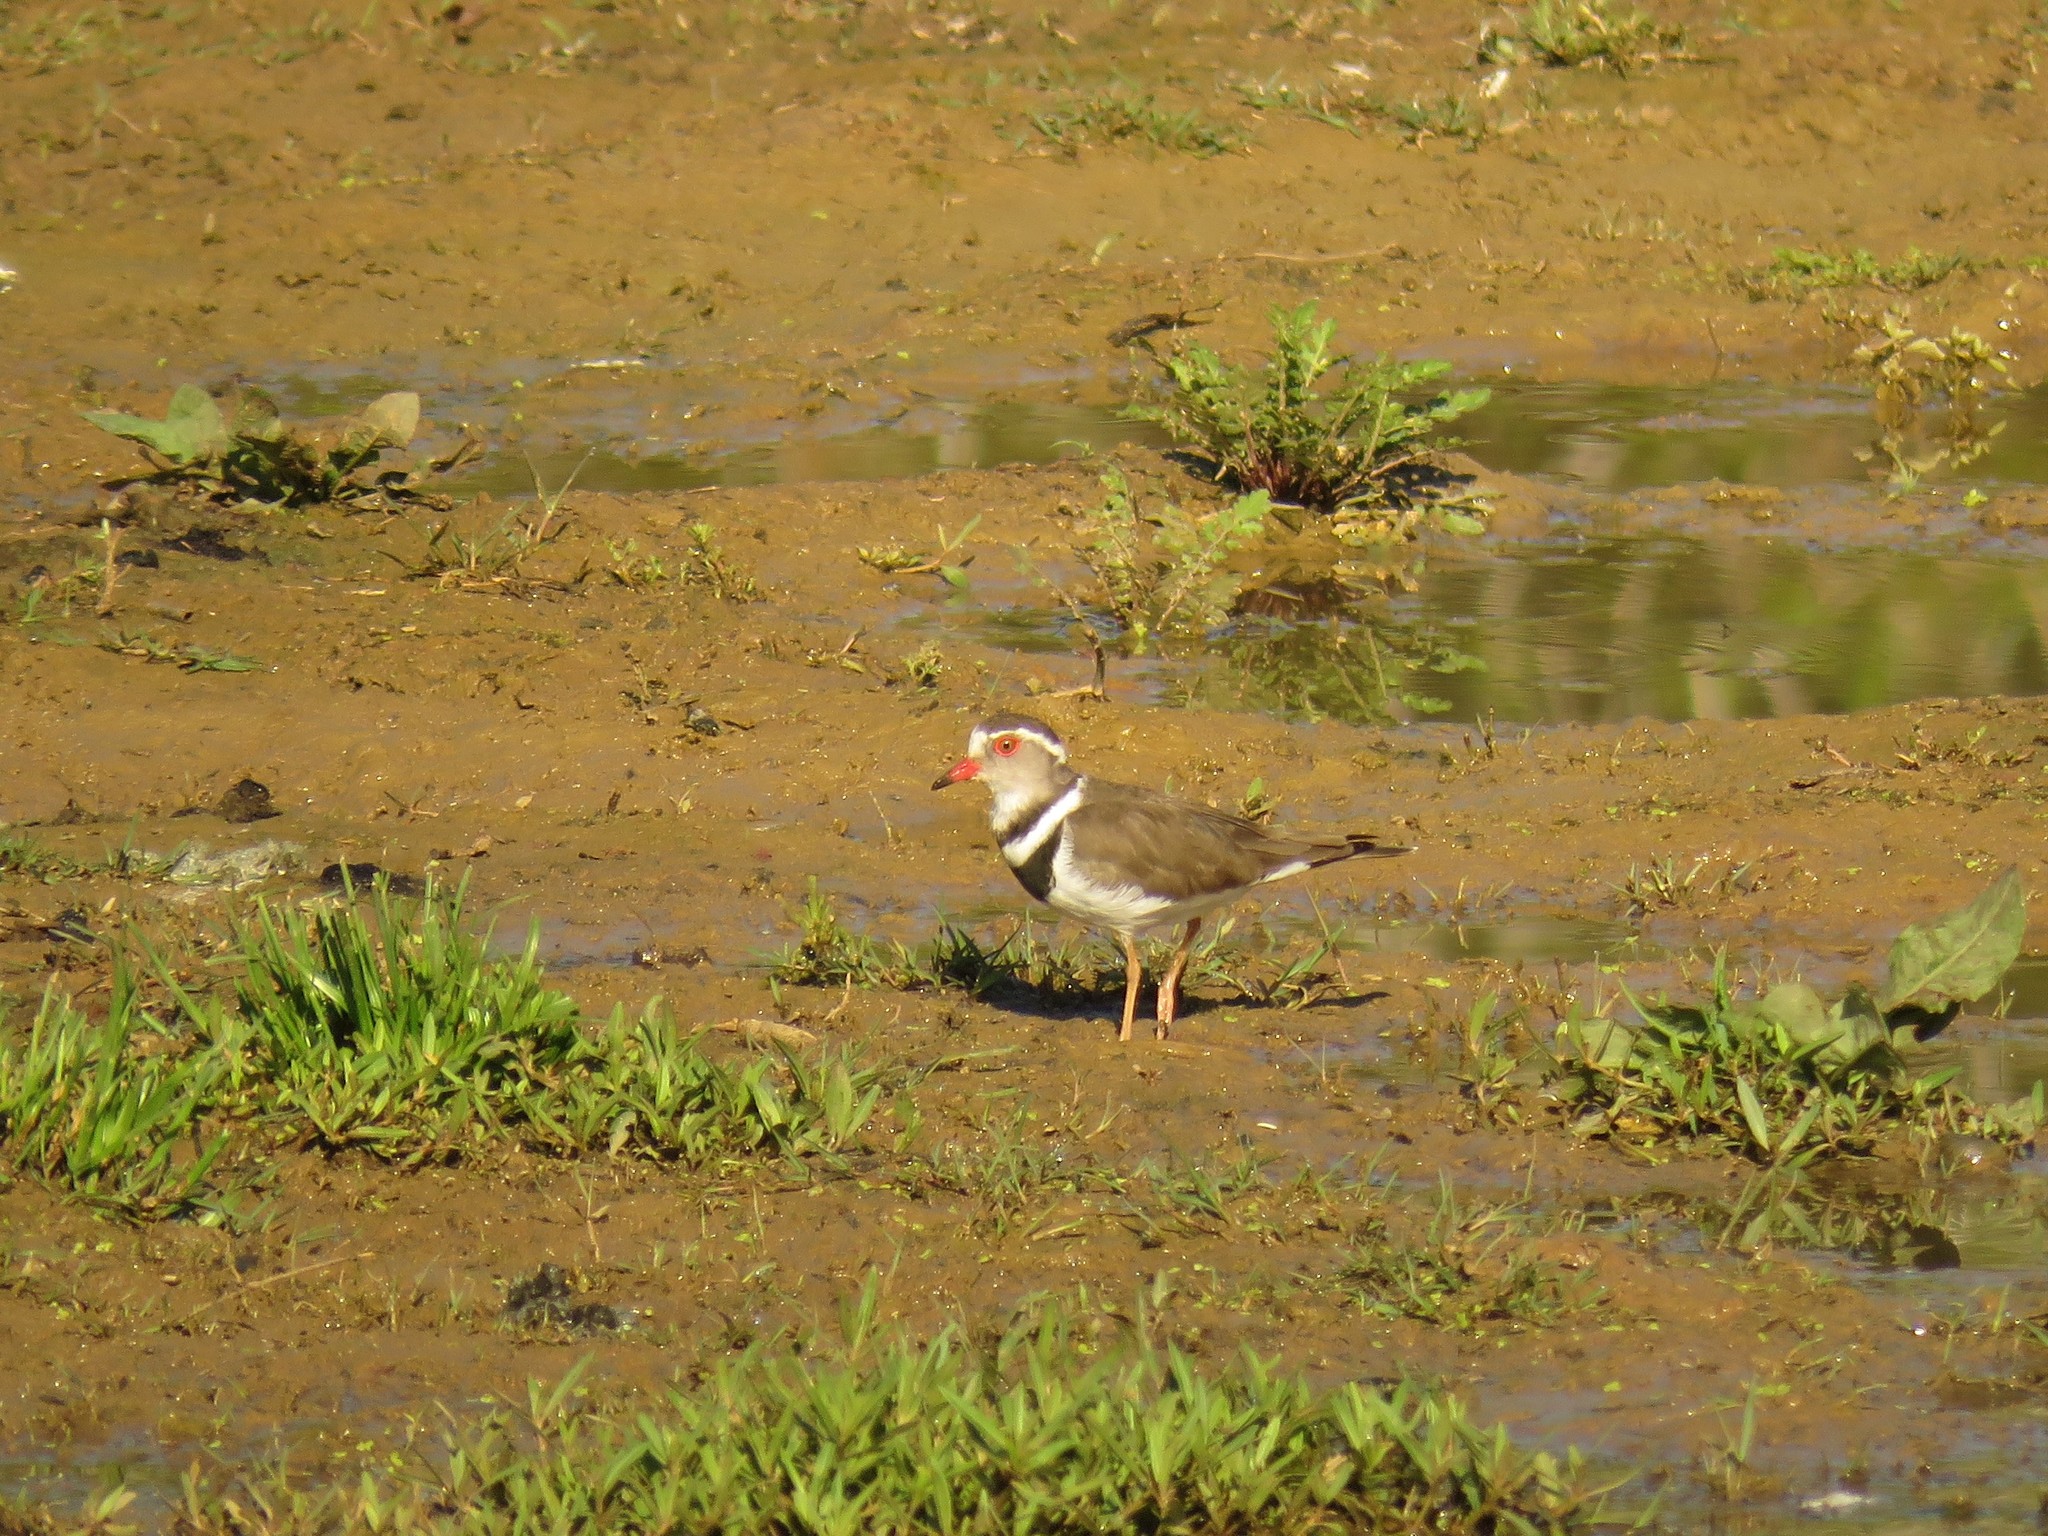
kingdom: Animalia
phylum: Chordata
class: Aves
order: Charadriiformes
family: Charadriidae
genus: Charadrius
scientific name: Charadrius tricollaris
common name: Three-banded plover
